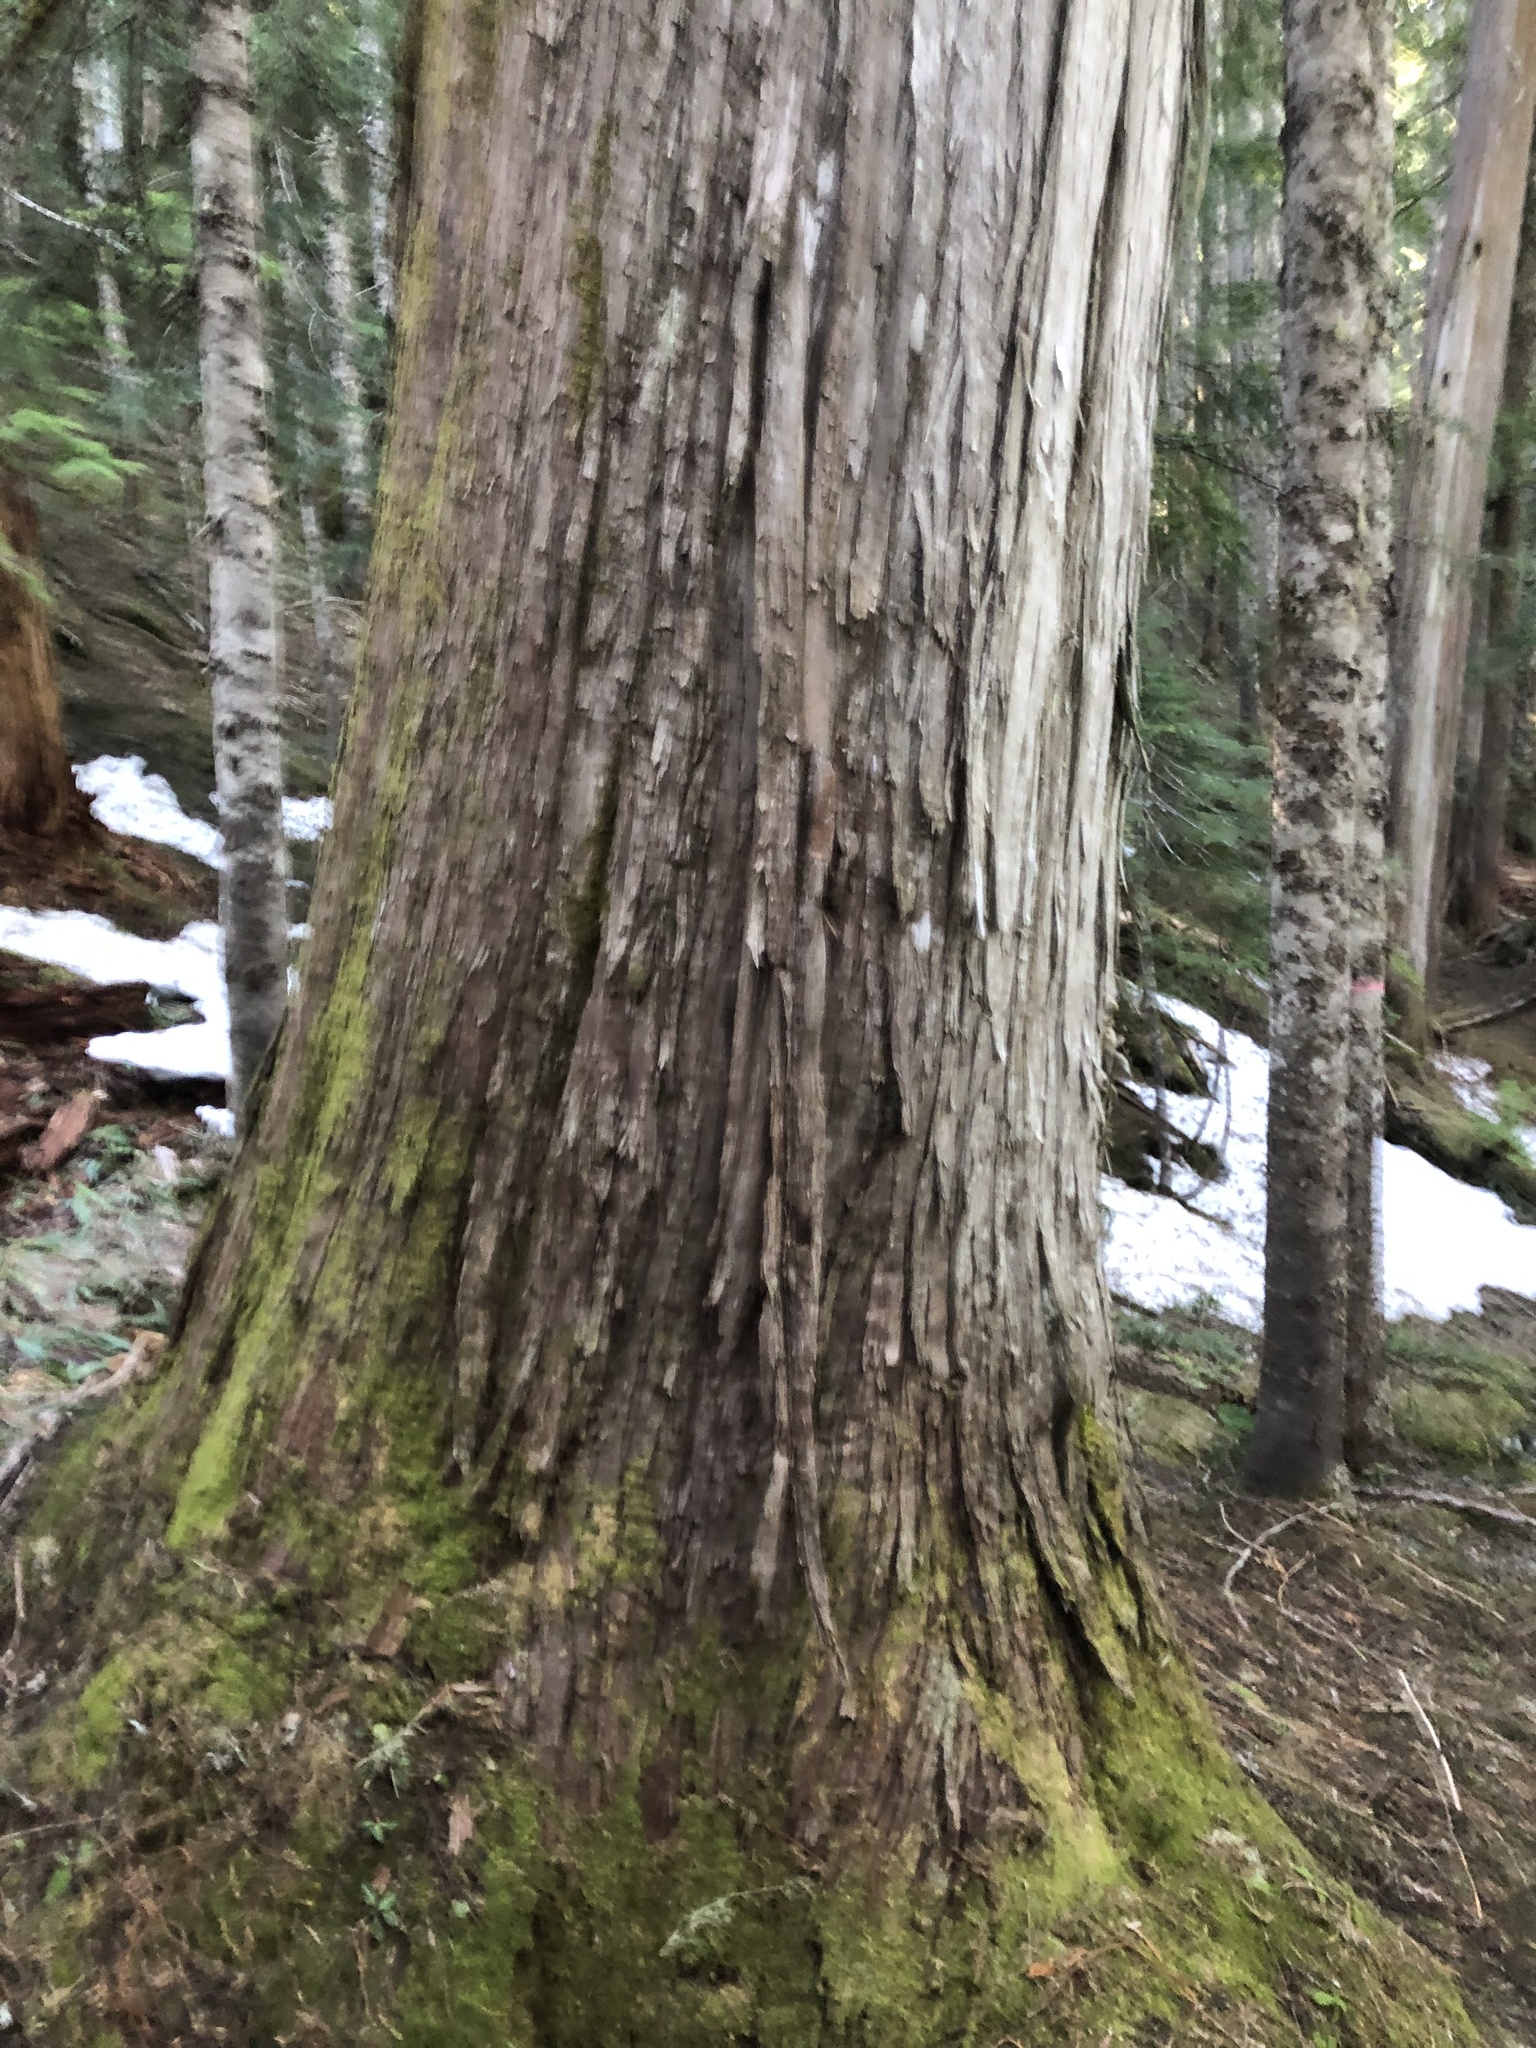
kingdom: Plantae
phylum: Tracheophyta
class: Pinopsida
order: Pinales
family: Cupressaceae
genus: Xanthocyparis
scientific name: Xanthocyparis nootkatensis
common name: Nootka cypress
